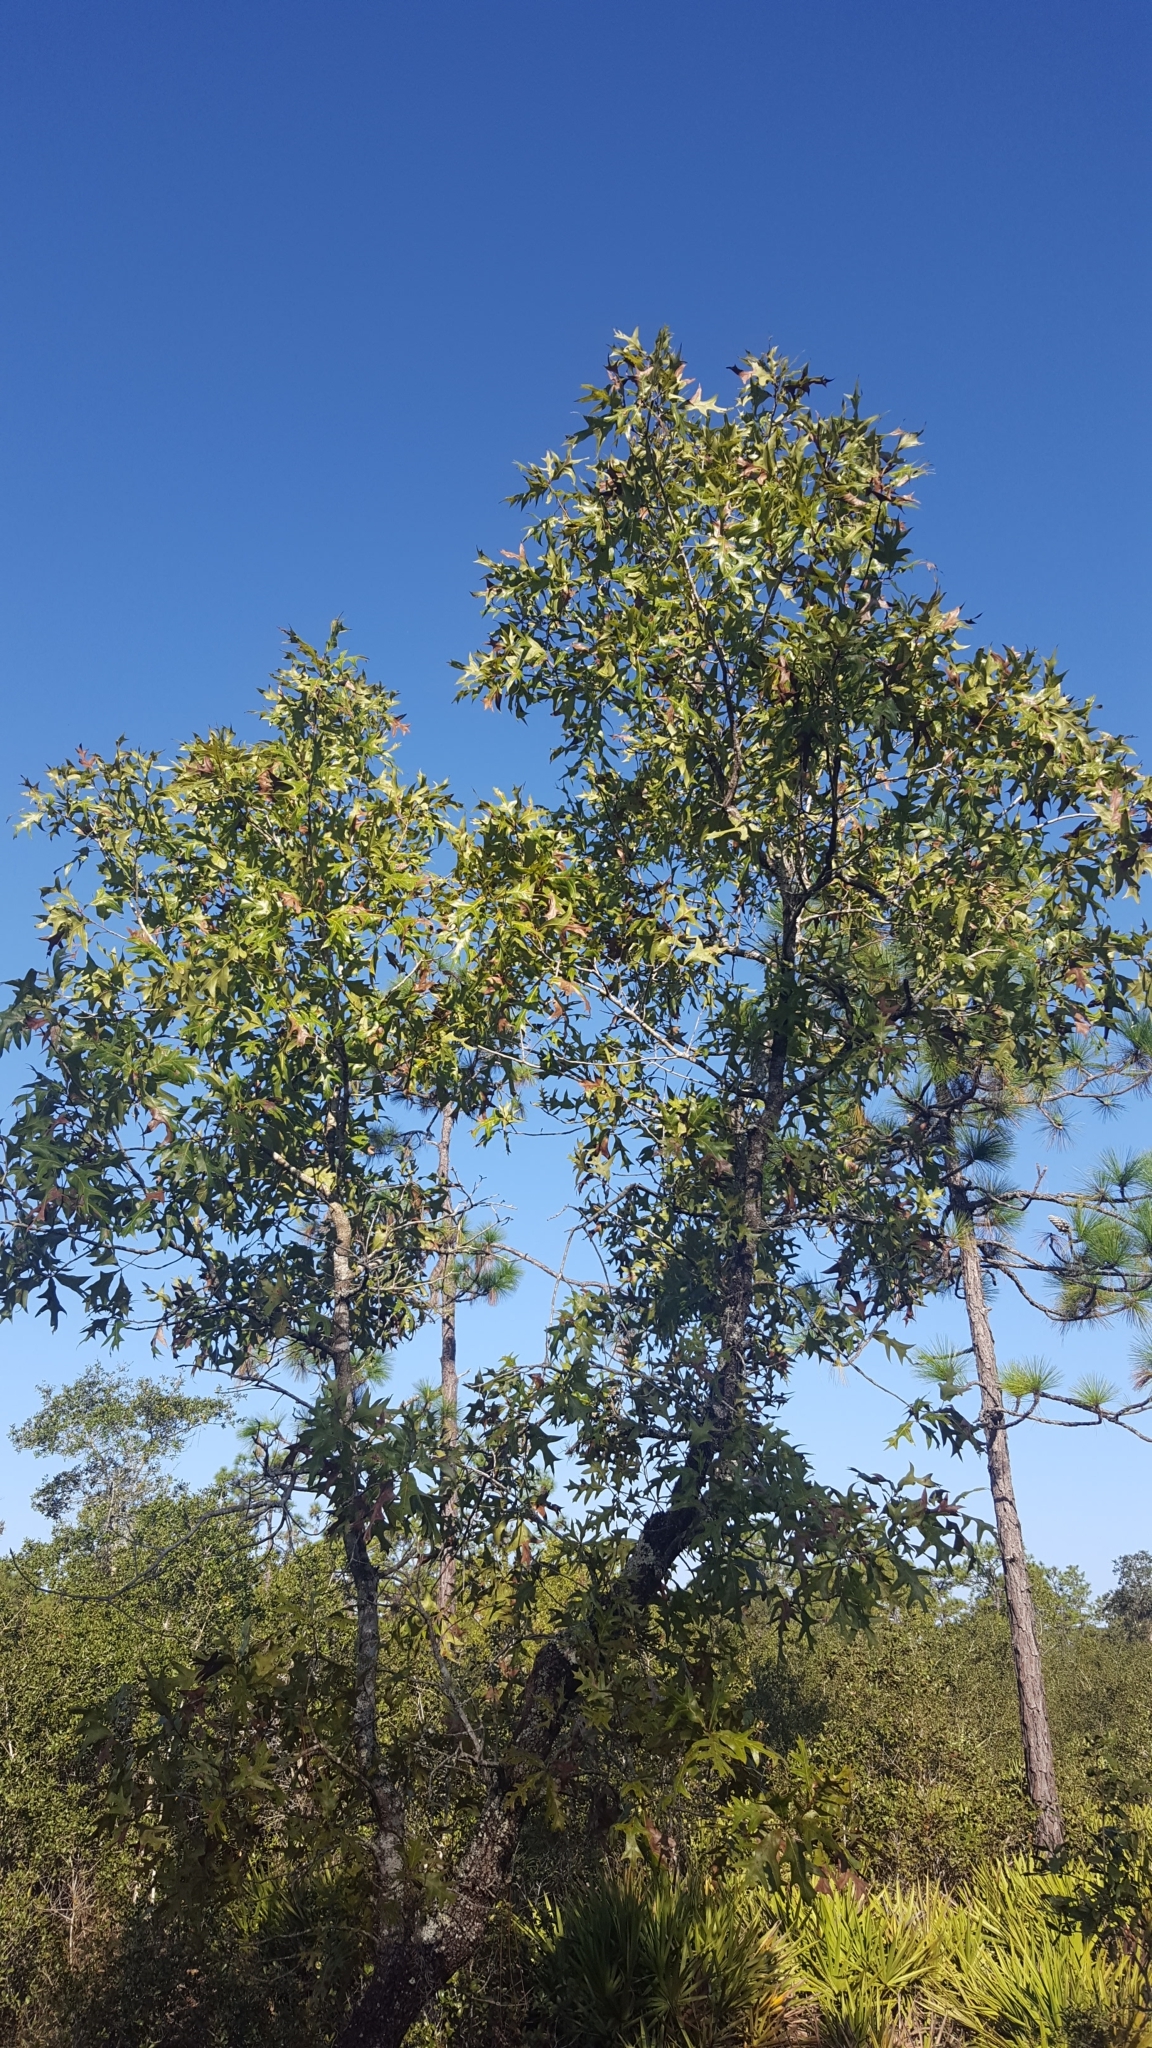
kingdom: Plantae
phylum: Tracheophyta
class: Magnoliopsida
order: Fagales
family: Fagaceae
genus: Quercus
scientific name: Quercus laevis
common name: Turkey oak
